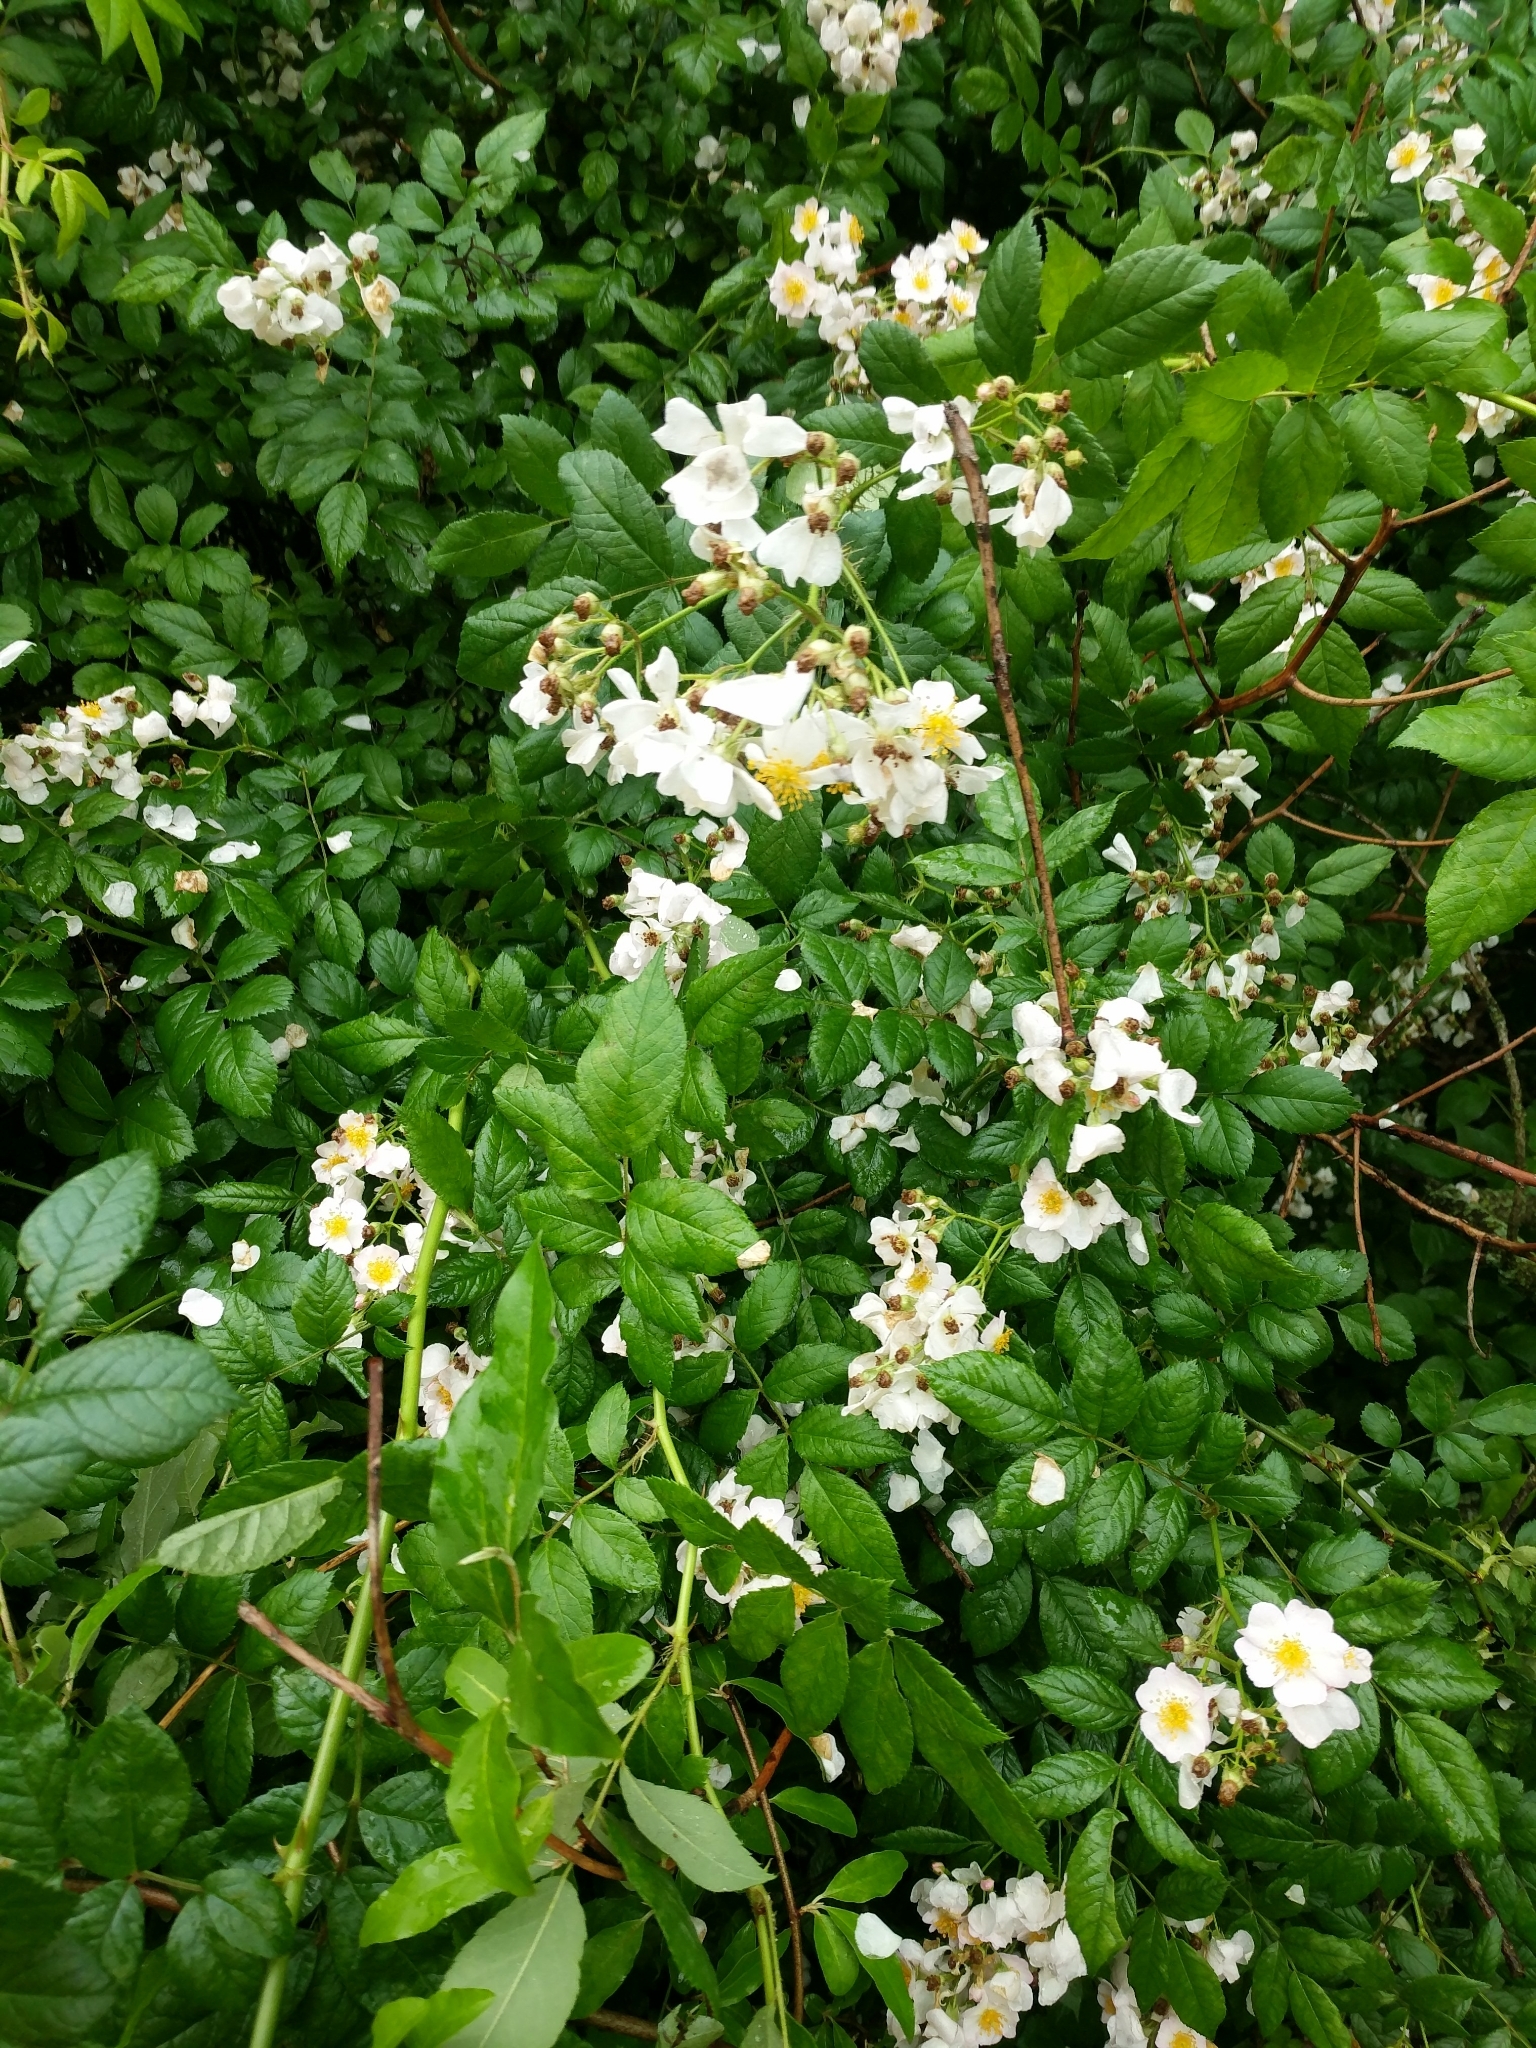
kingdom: Plantae
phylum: Tracheophyta
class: Magnoliopsida
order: Rosales
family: Rosaceae
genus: Rosa
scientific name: Rosa multiflora
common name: Multiflora rose
